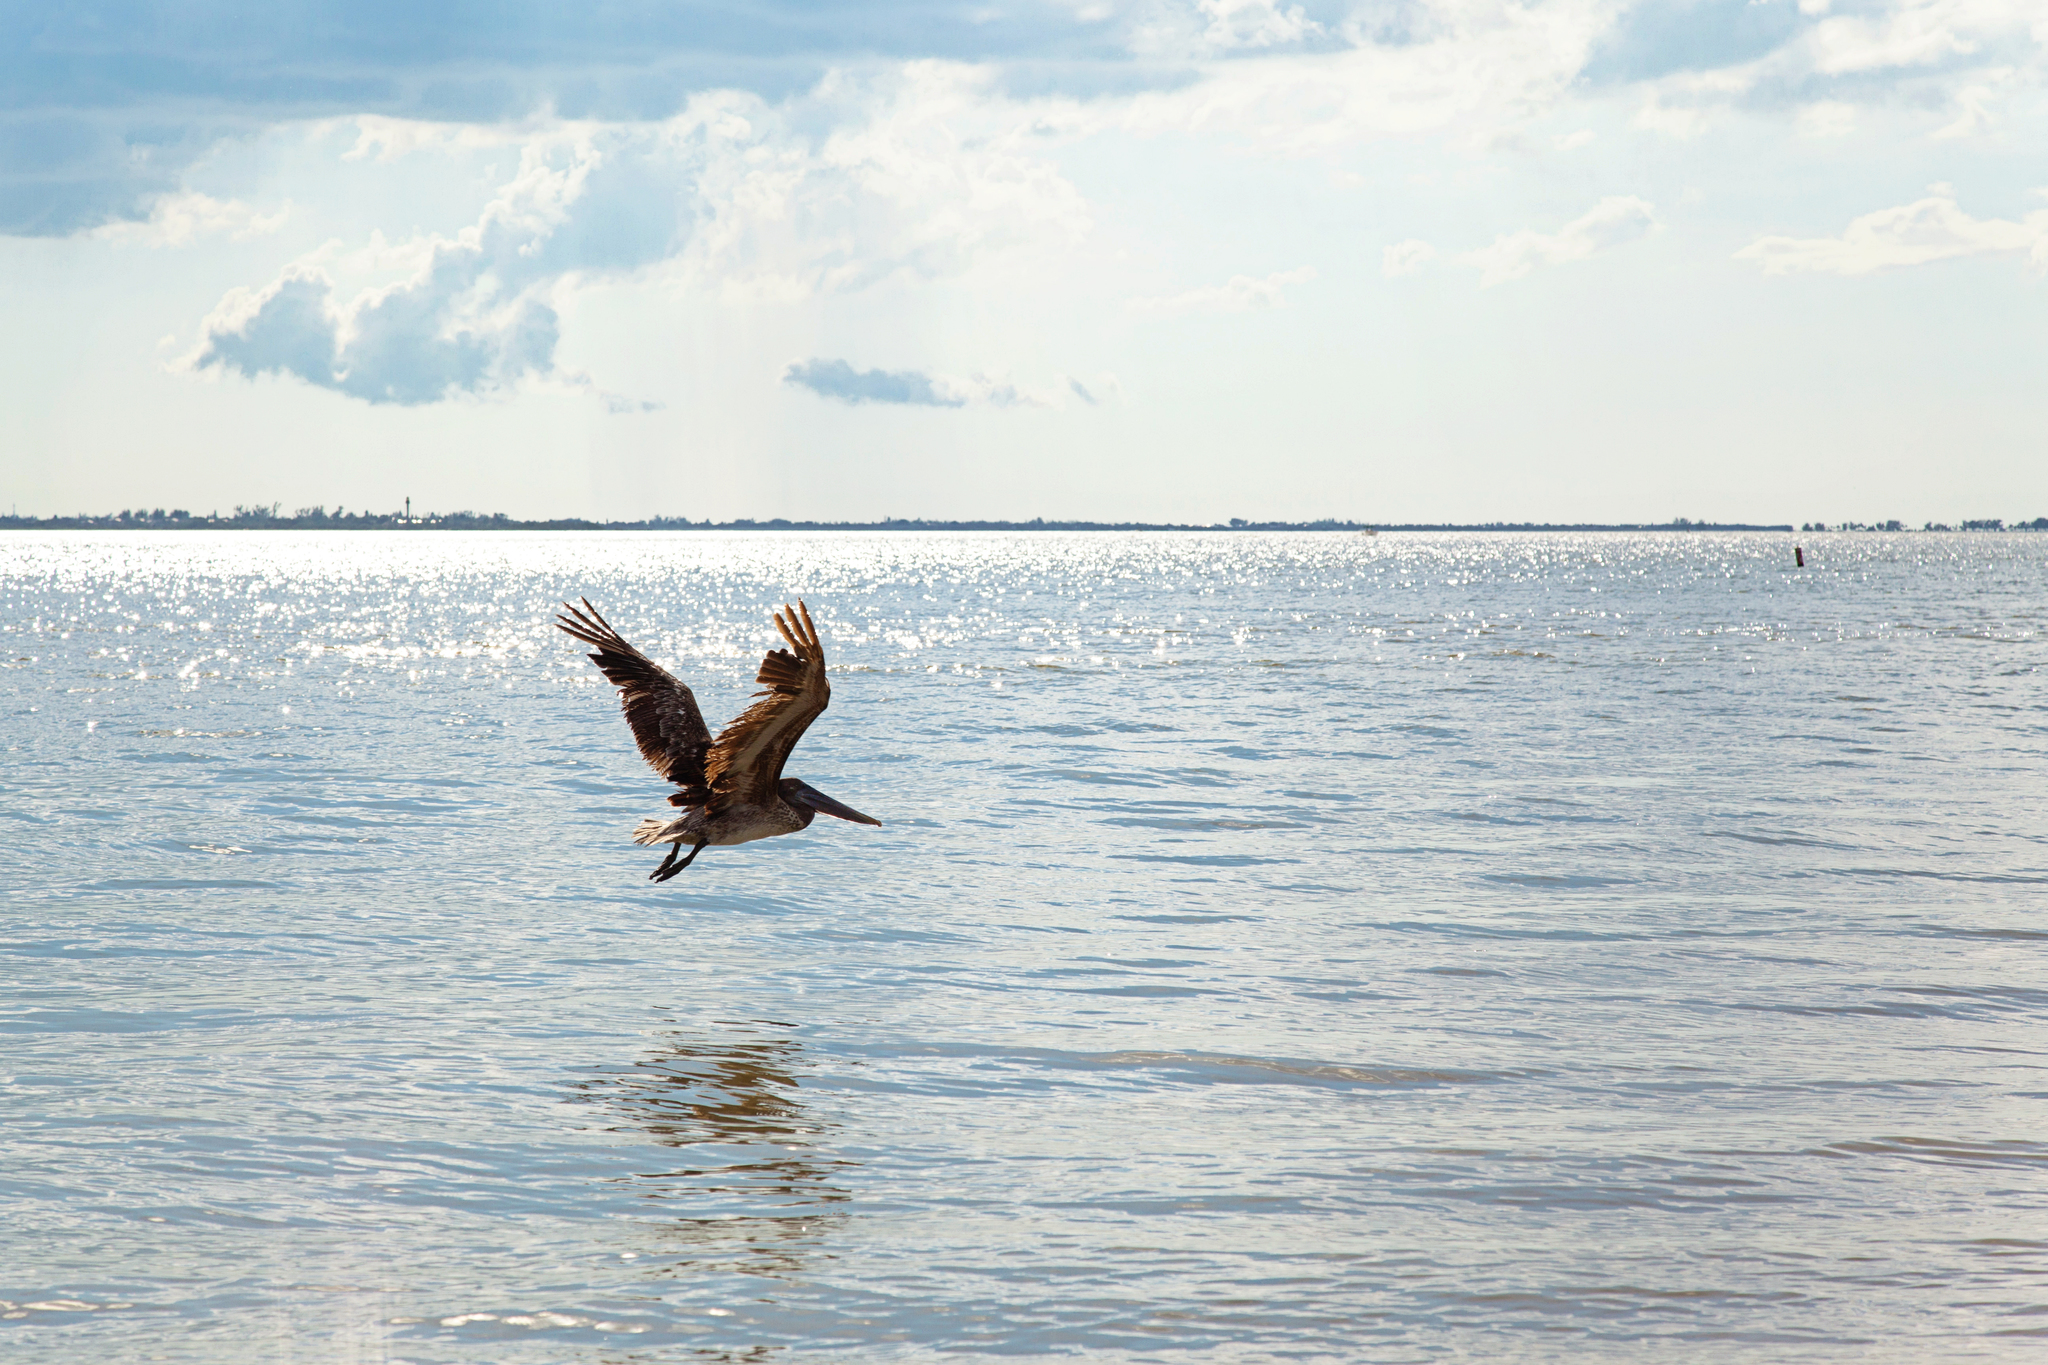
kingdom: Animalia
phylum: Chordata
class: Aves
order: Pelecaniformes
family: Pelecanidae
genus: Pelecanus
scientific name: Pelecanus occidentalis
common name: Brown pelican
